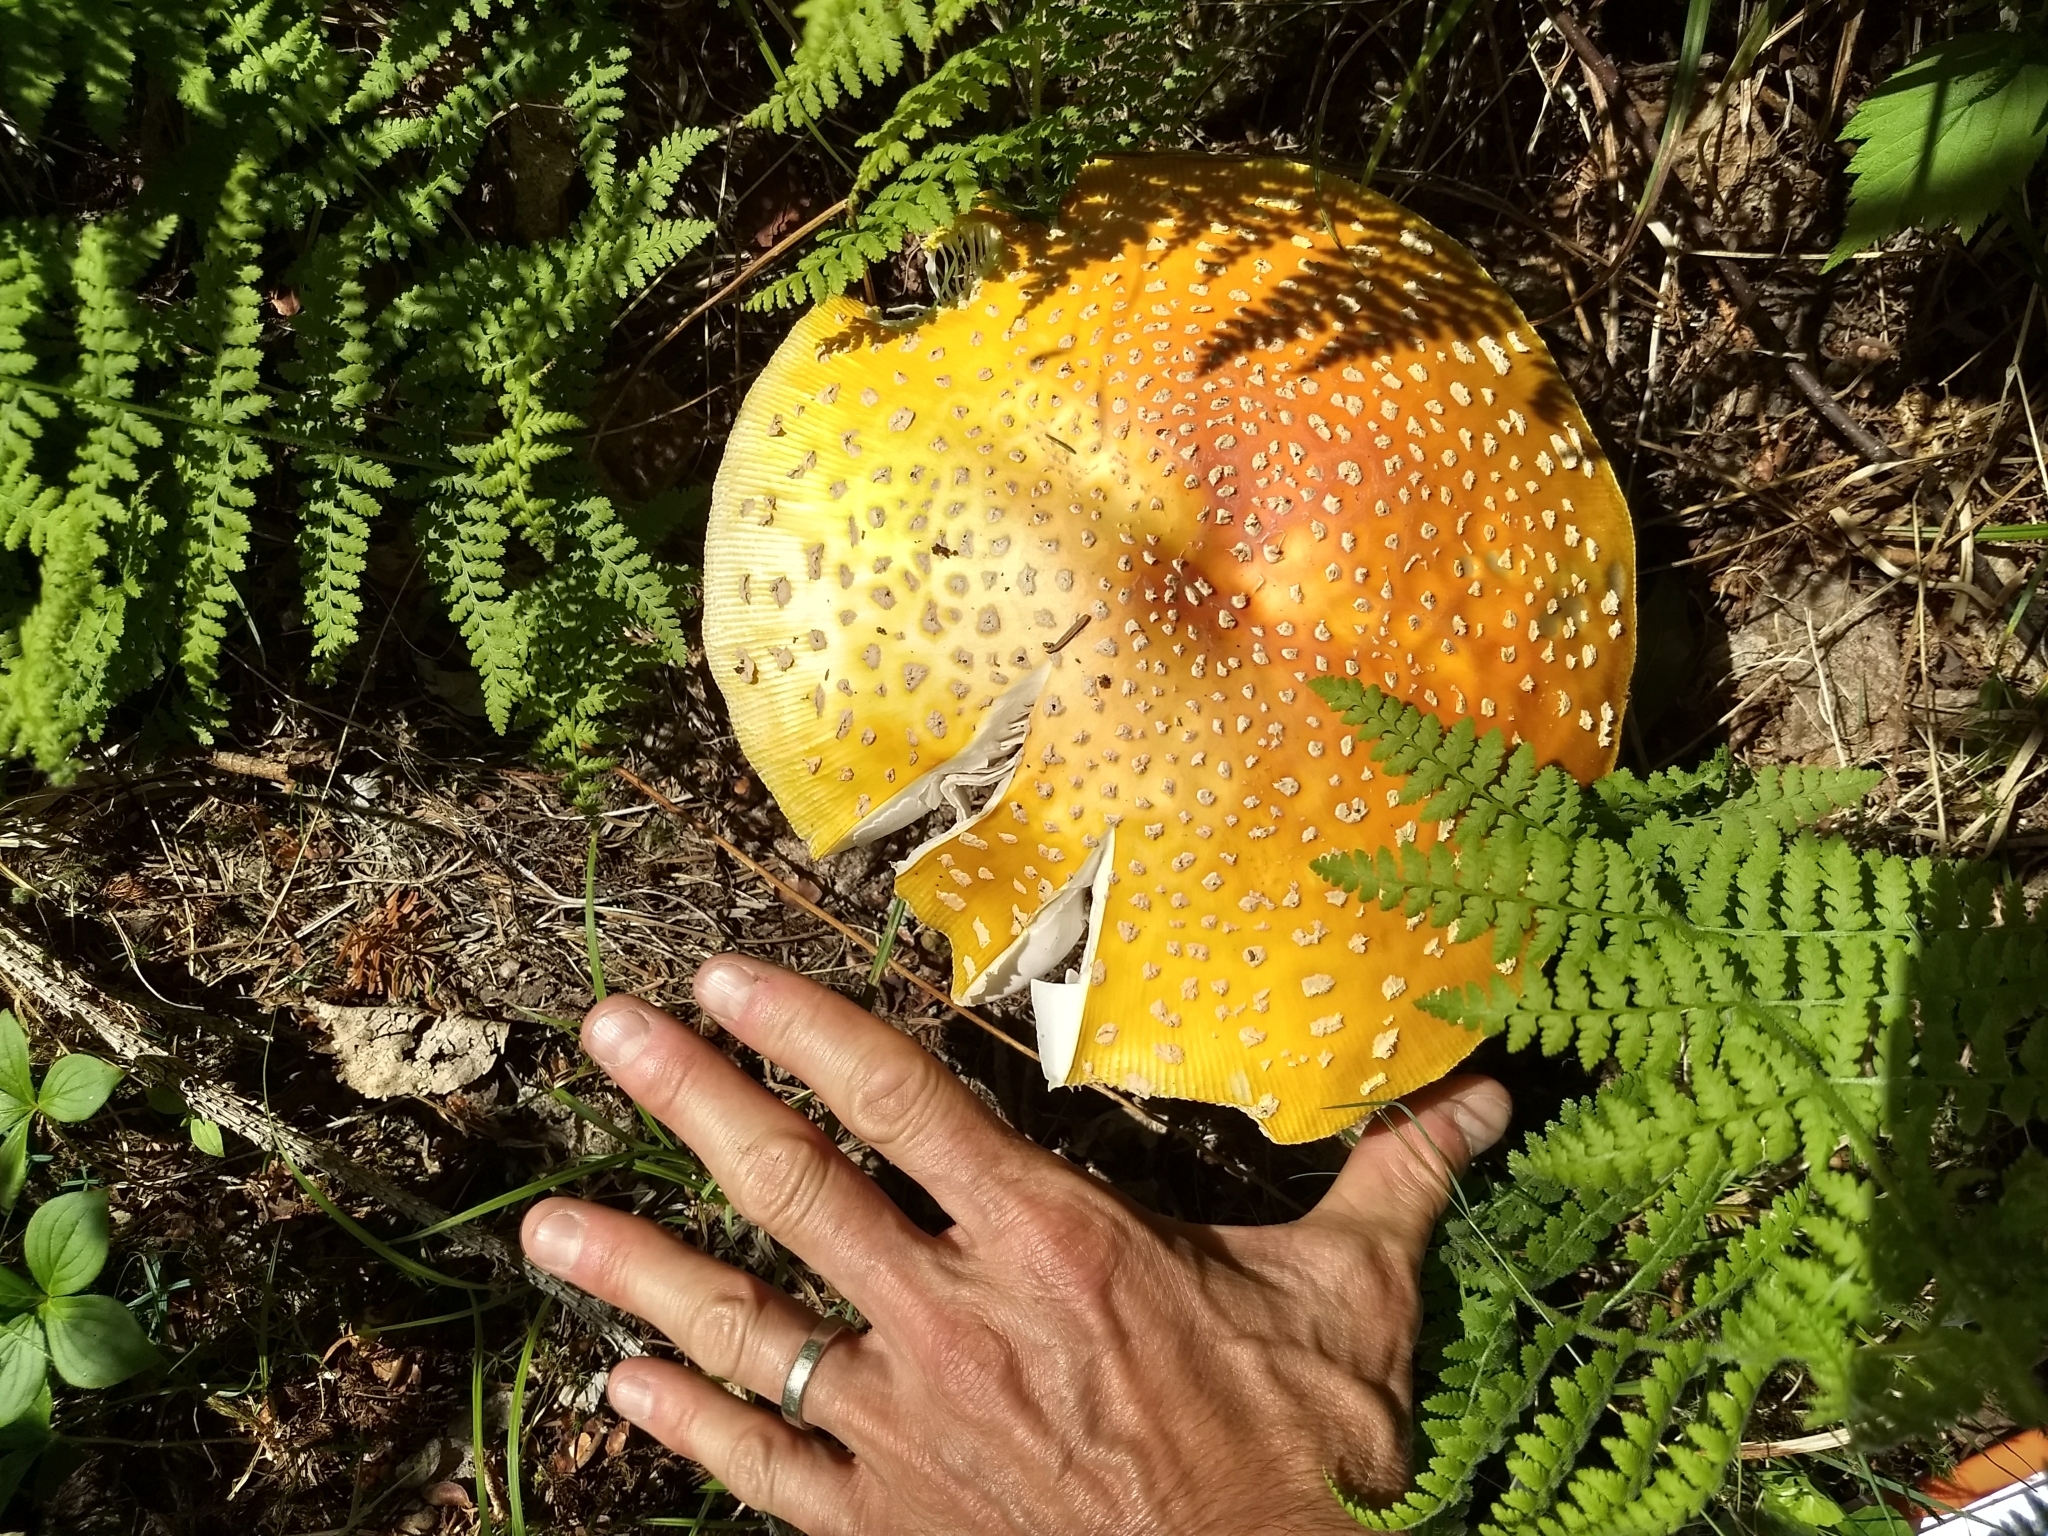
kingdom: Fungi
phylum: Basidiomycota
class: Agaricomycetes
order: Agaricales
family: Amanitaceae
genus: Amanita
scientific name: Amanita muscaria
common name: Fly agaric
